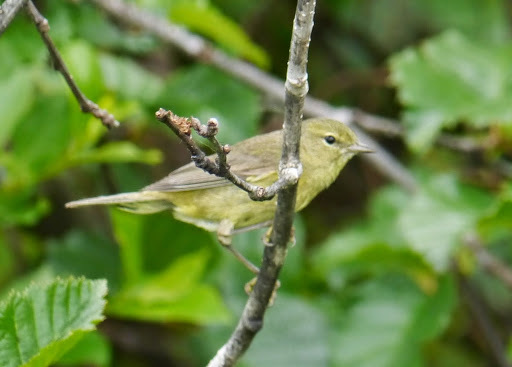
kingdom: Animalia
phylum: Chordata
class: Aves
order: Passeriformes
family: Parulidae
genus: Leiothlypis
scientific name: Leiothlypis celata
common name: Orange-crowned warbler
